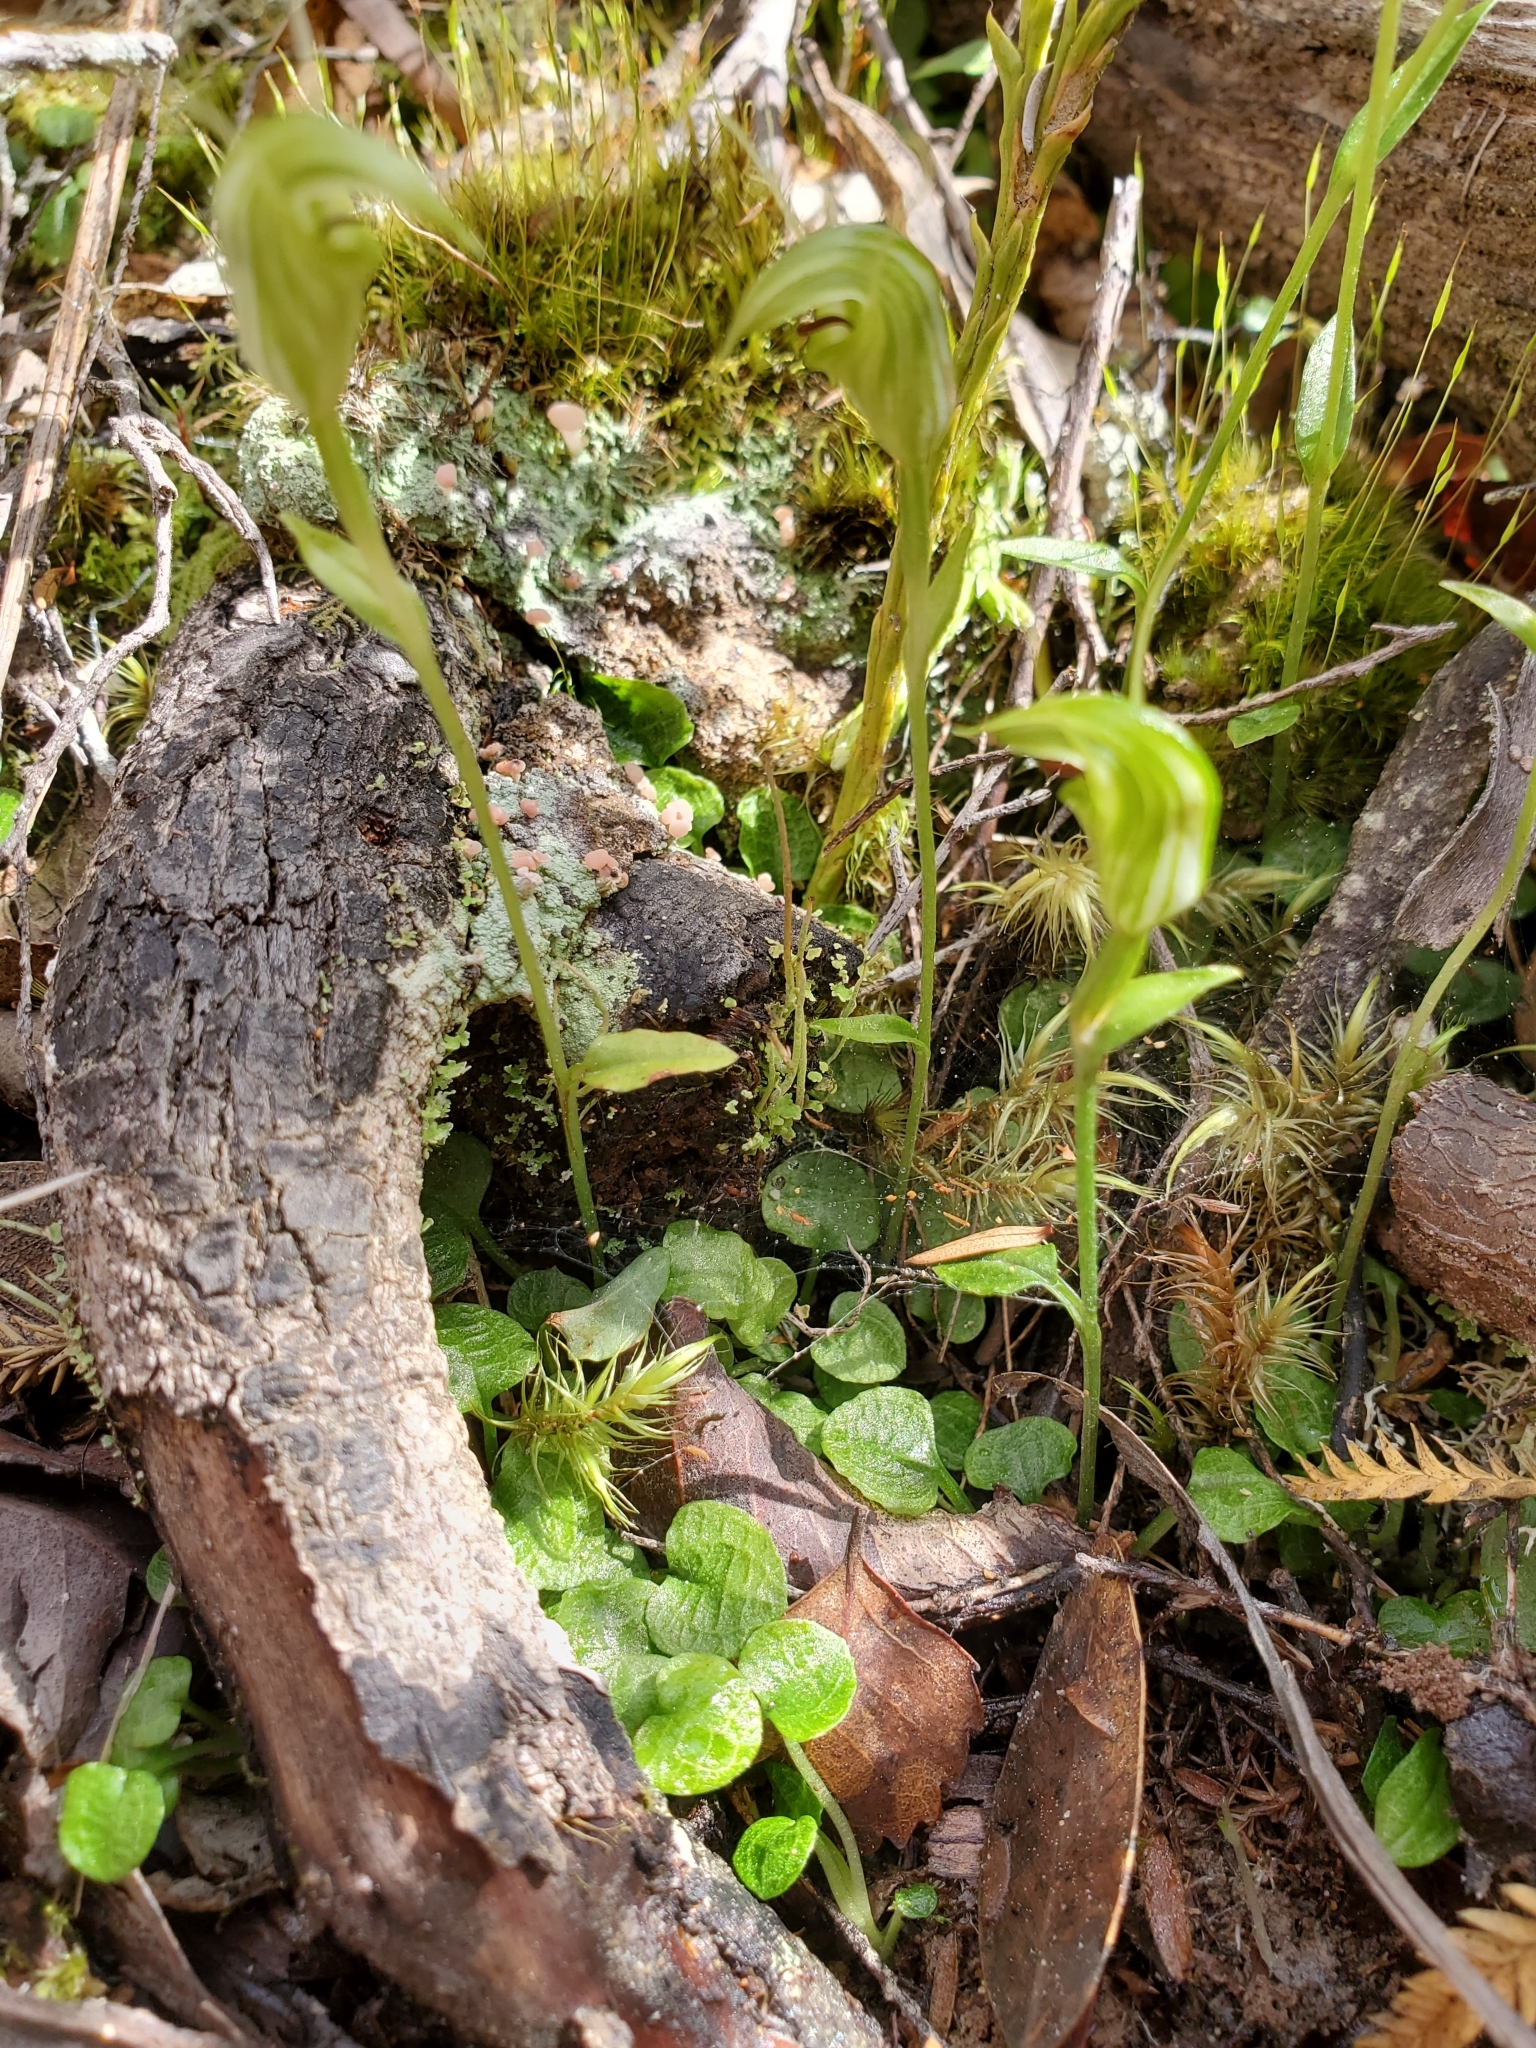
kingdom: Plantae
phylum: Tracheophyta
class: Liliopsida
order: Asparagales
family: Orchidaceae
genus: Pterostylis
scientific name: Pterostylis trullifolia
